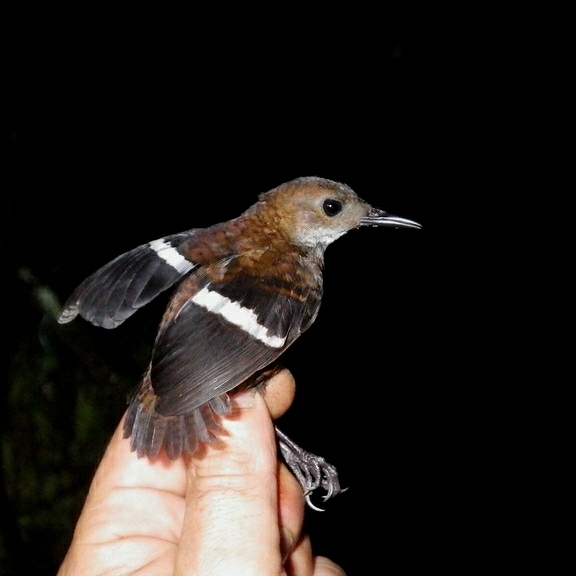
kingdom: Animalia
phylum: Chordata
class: Aves
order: Passeriformes
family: Troglodytidae
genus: Microcerculus
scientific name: Microcerculus bambla
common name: Wing-banded wren
